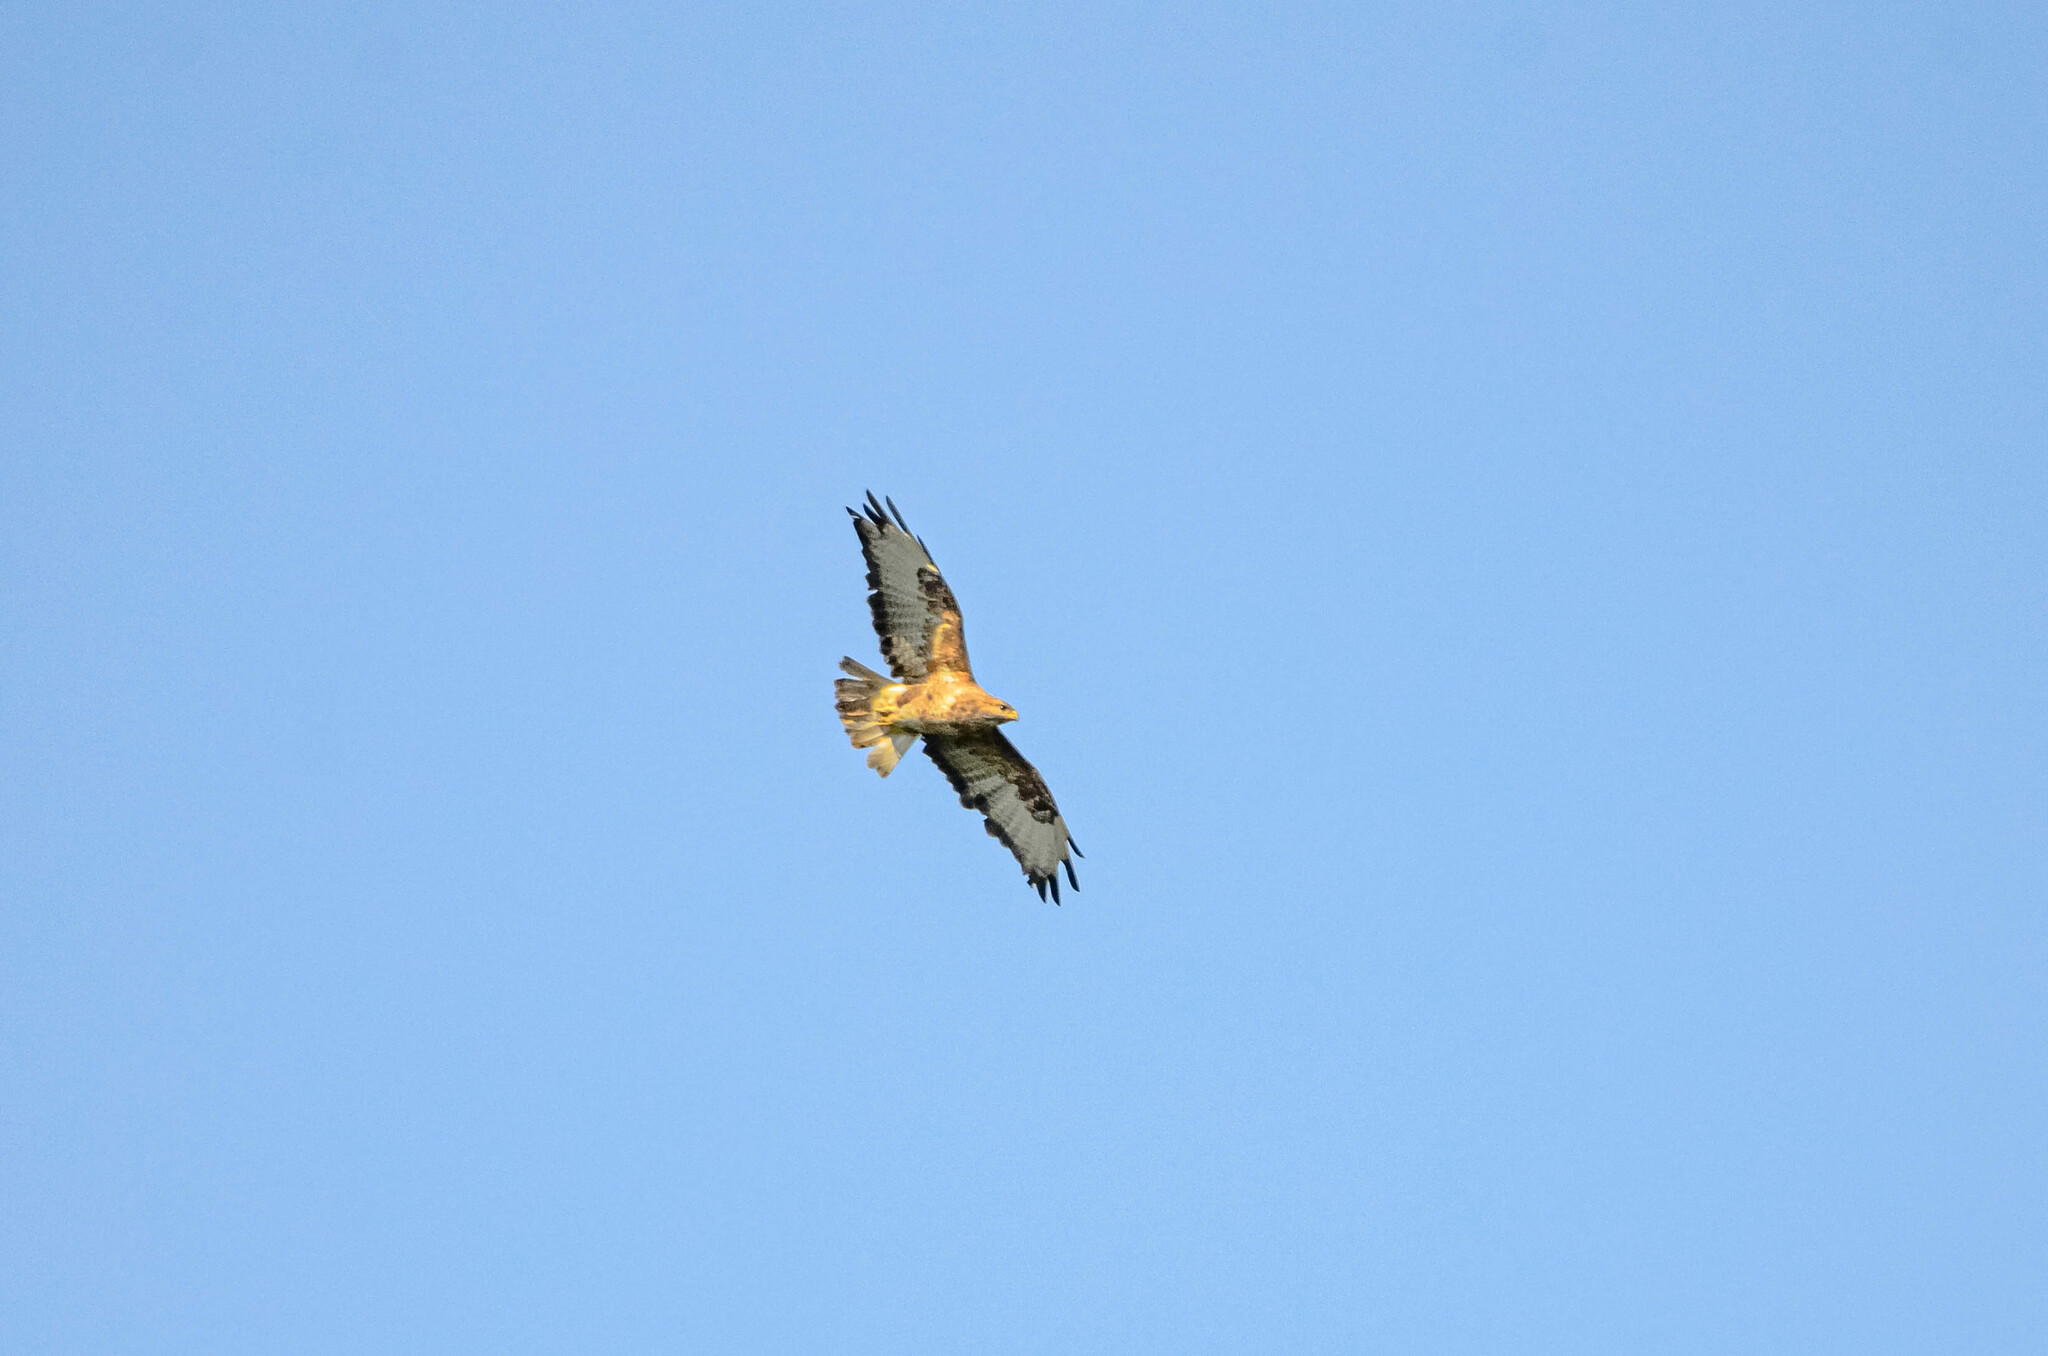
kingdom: Animalia
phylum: Chordata
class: Aves
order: Accipitriformes
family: Accipitridae
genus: Buteo
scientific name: Buteo buteo
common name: Common buzzard
